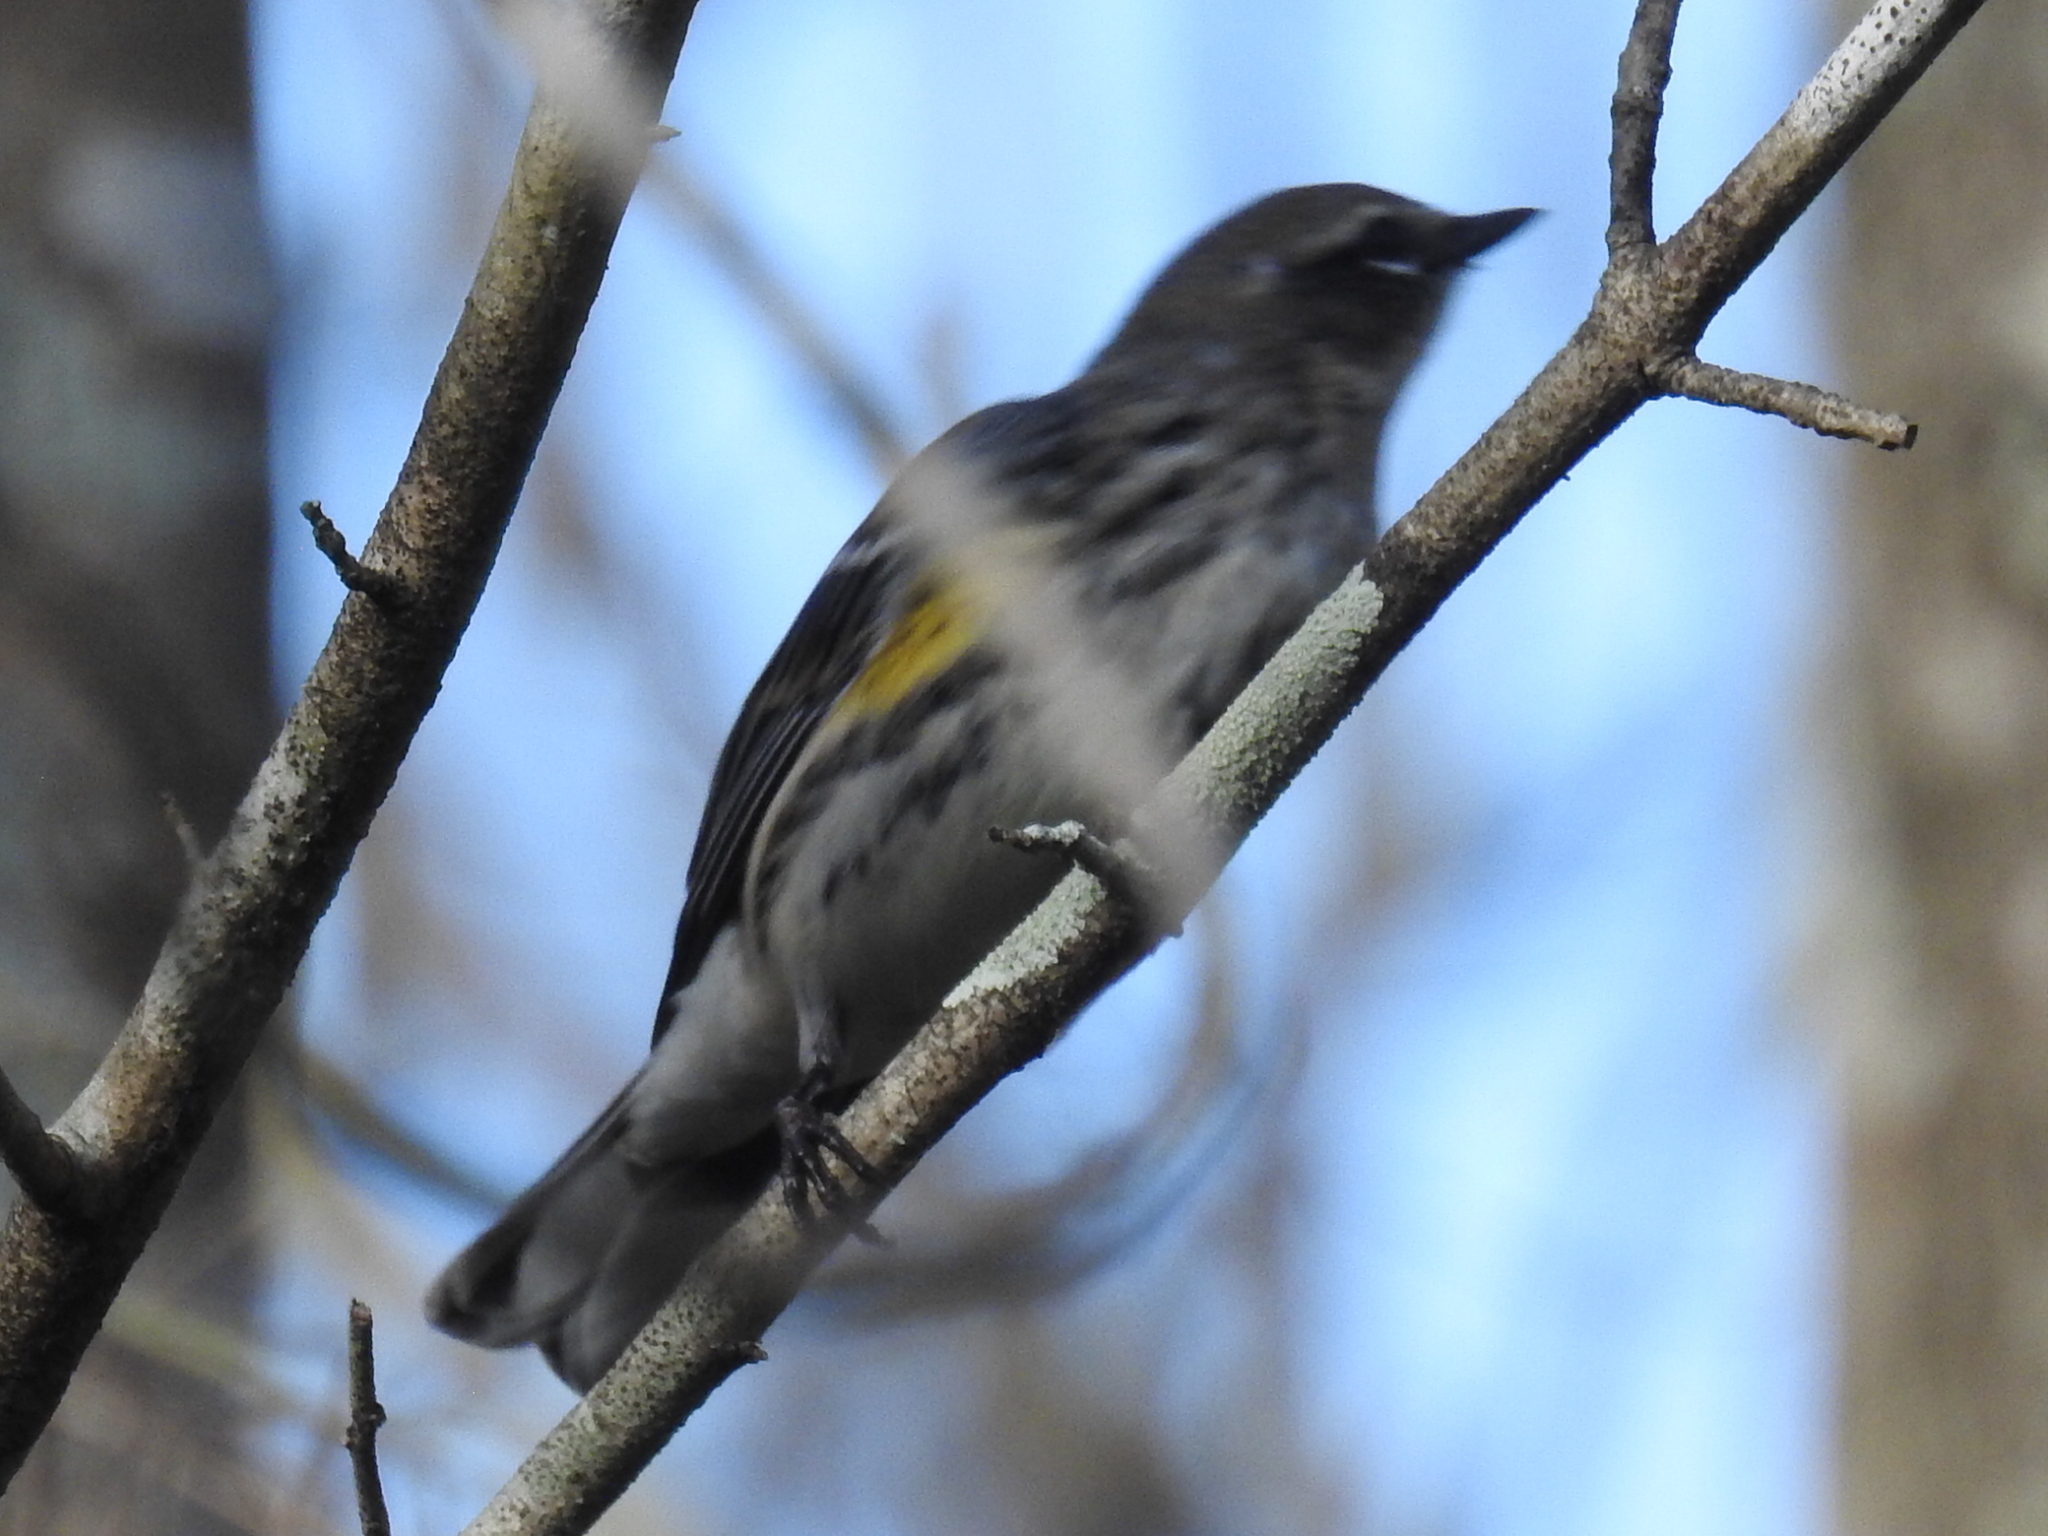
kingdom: Animalia
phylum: Chordata
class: Aves
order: Passeriformes
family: Parulidae
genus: Setophaga
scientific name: Setophaga coronata
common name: Myrtle warbler
